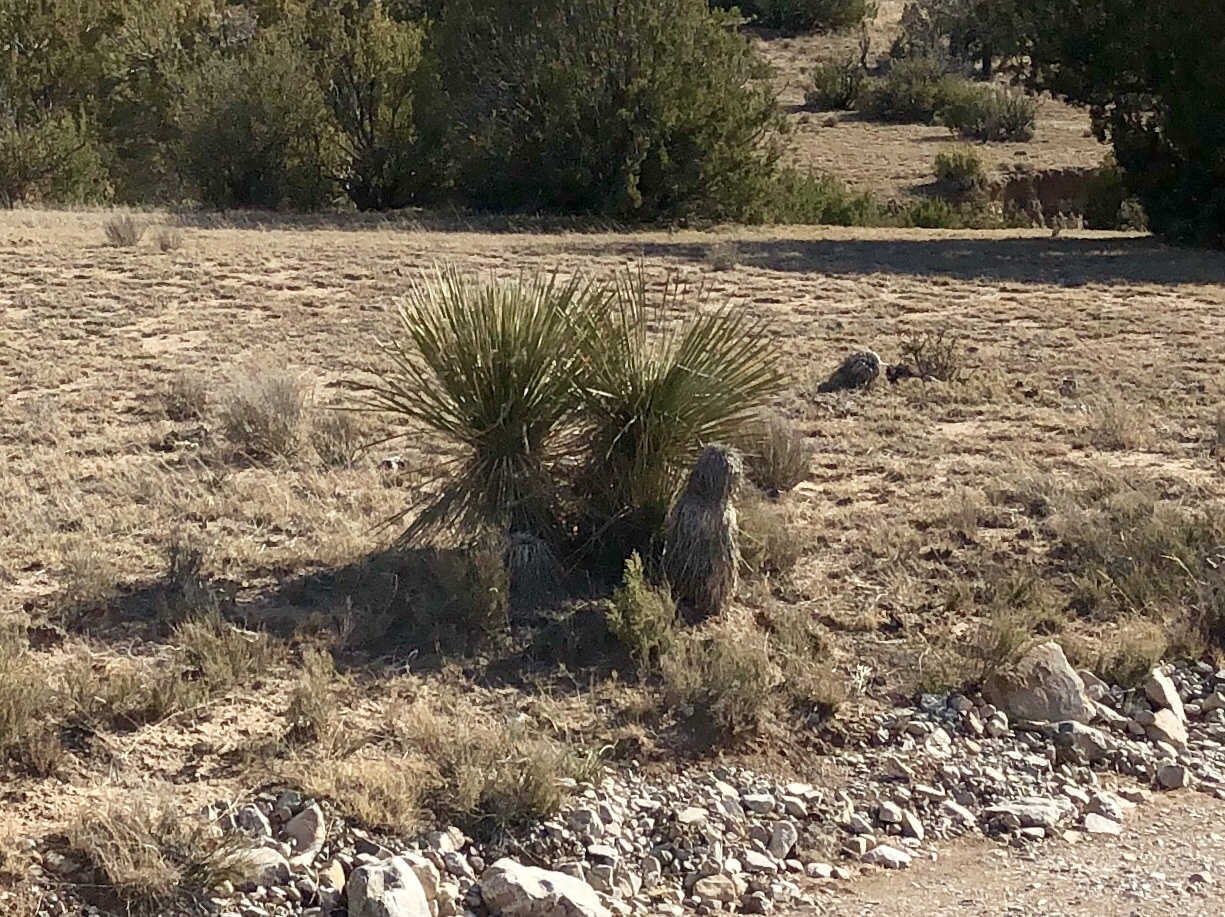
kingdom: Plantae
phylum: Tracheophyta
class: Liliopsida
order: Asparagales
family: Asparagaceae
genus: Yucca
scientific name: Yucca elata
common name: Palmella
